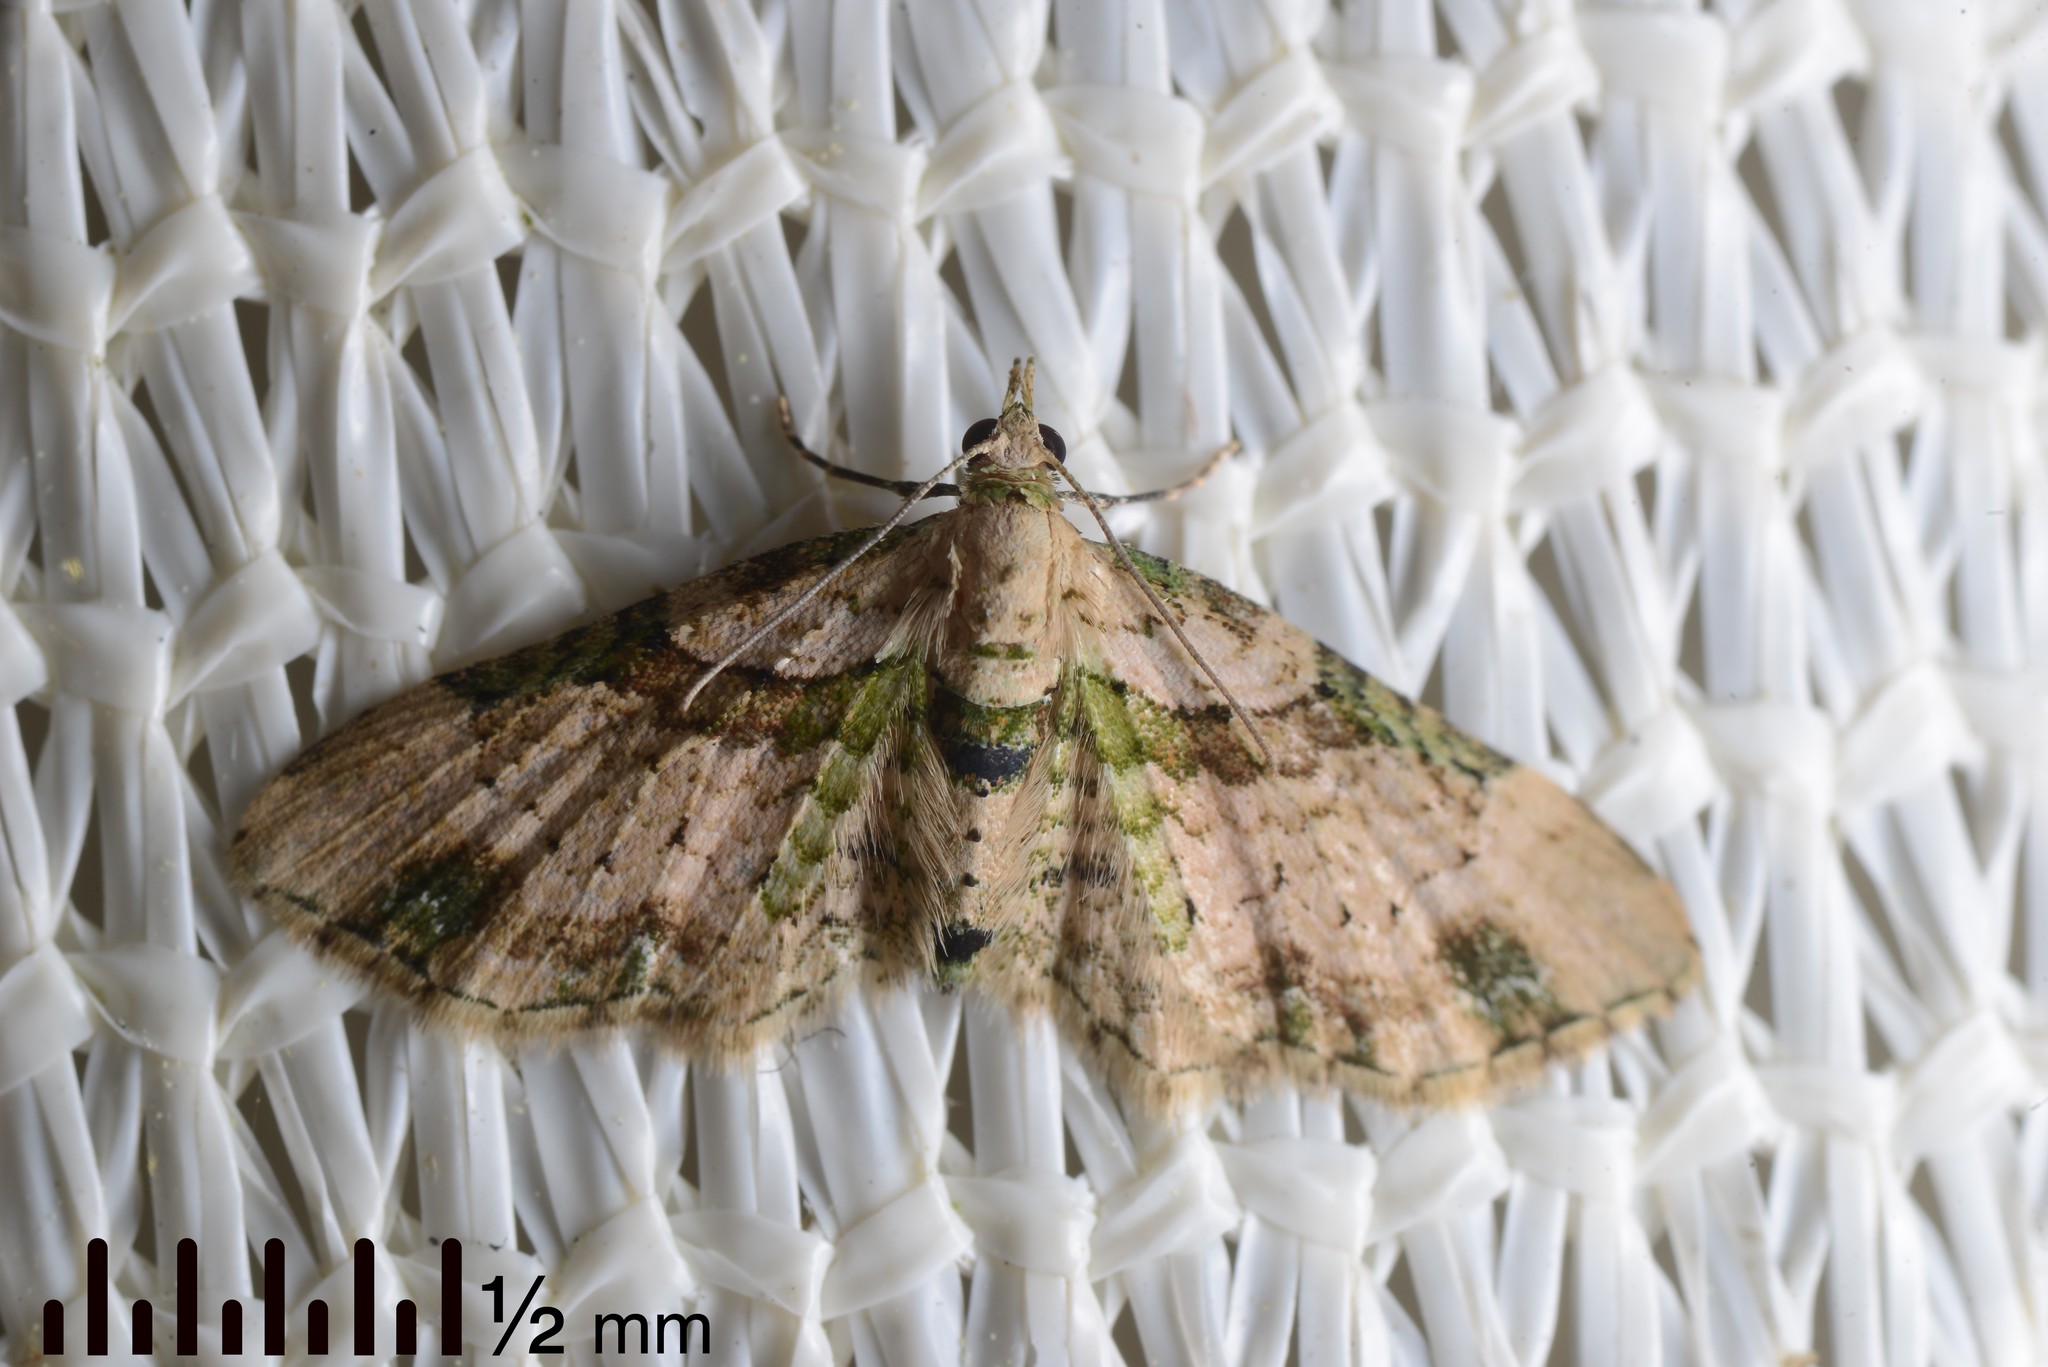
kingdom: Animalia
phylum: Arthropoda
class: Insecta
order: Lepidoptera
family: Geometridae
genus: Chloroclystis
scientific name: Chloroclystis
